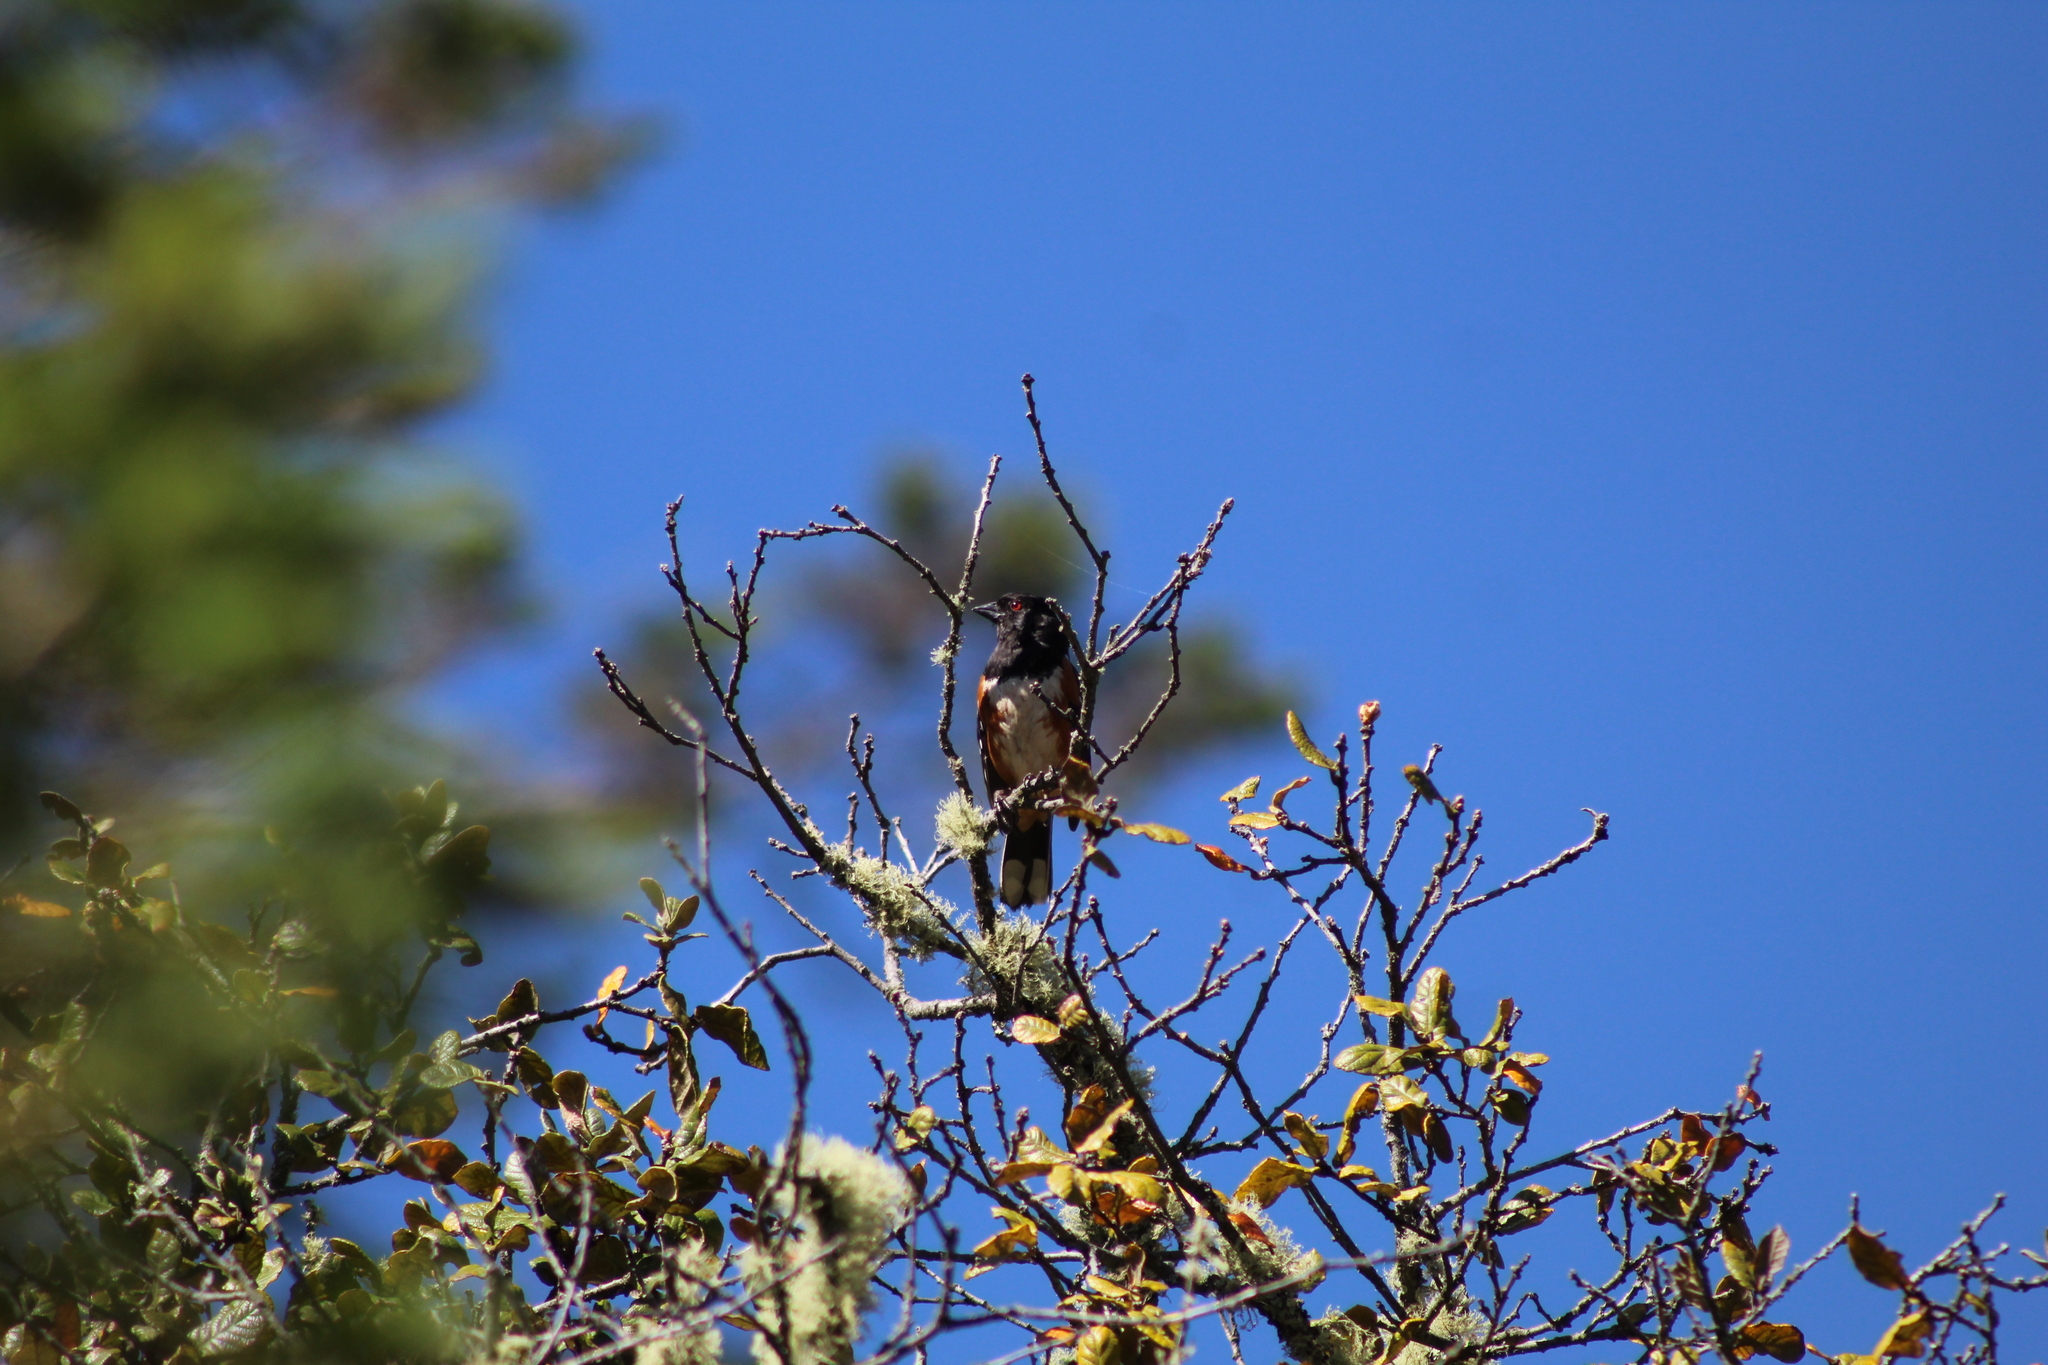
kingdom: Animalia
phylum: Chordata
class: Aves
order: Passeriformes
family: Passerellidae
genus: Pipilo
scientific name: Pipilo maculatus
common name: Spotted towhee
